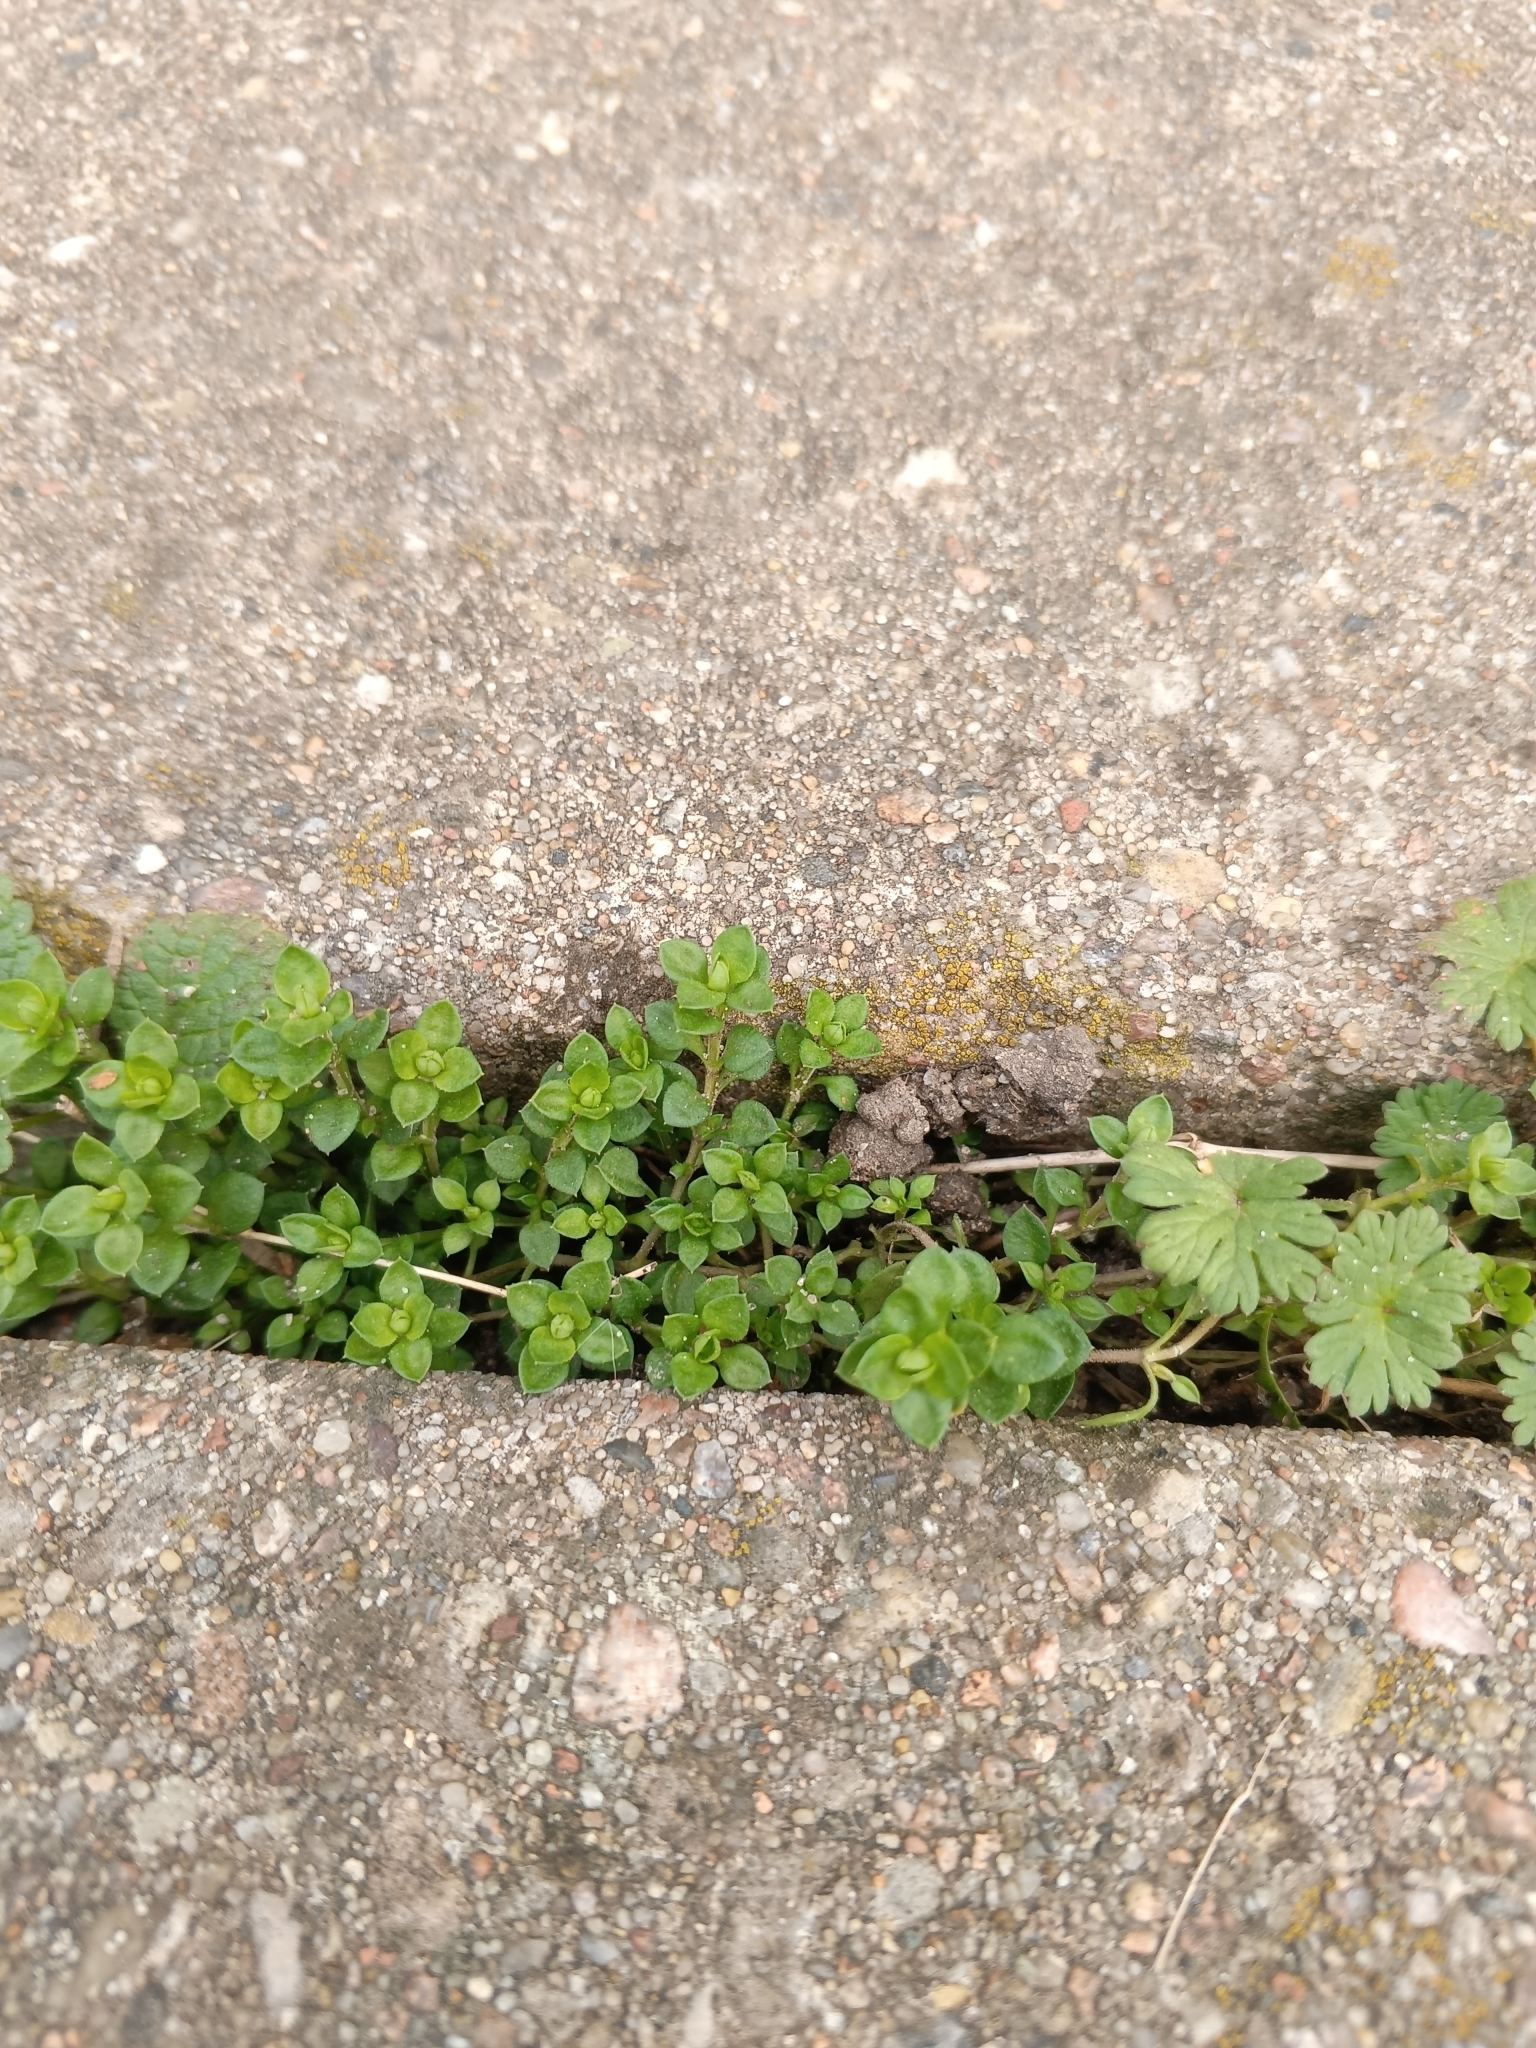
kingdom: Plantae
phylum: Tracheophyta
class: Magnoliopsida
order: Caryophyllales
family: Caryophyllaceae
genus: Arenaria
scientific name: Arenaria serpyllifolia
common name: Thyme-leaved sandwort
